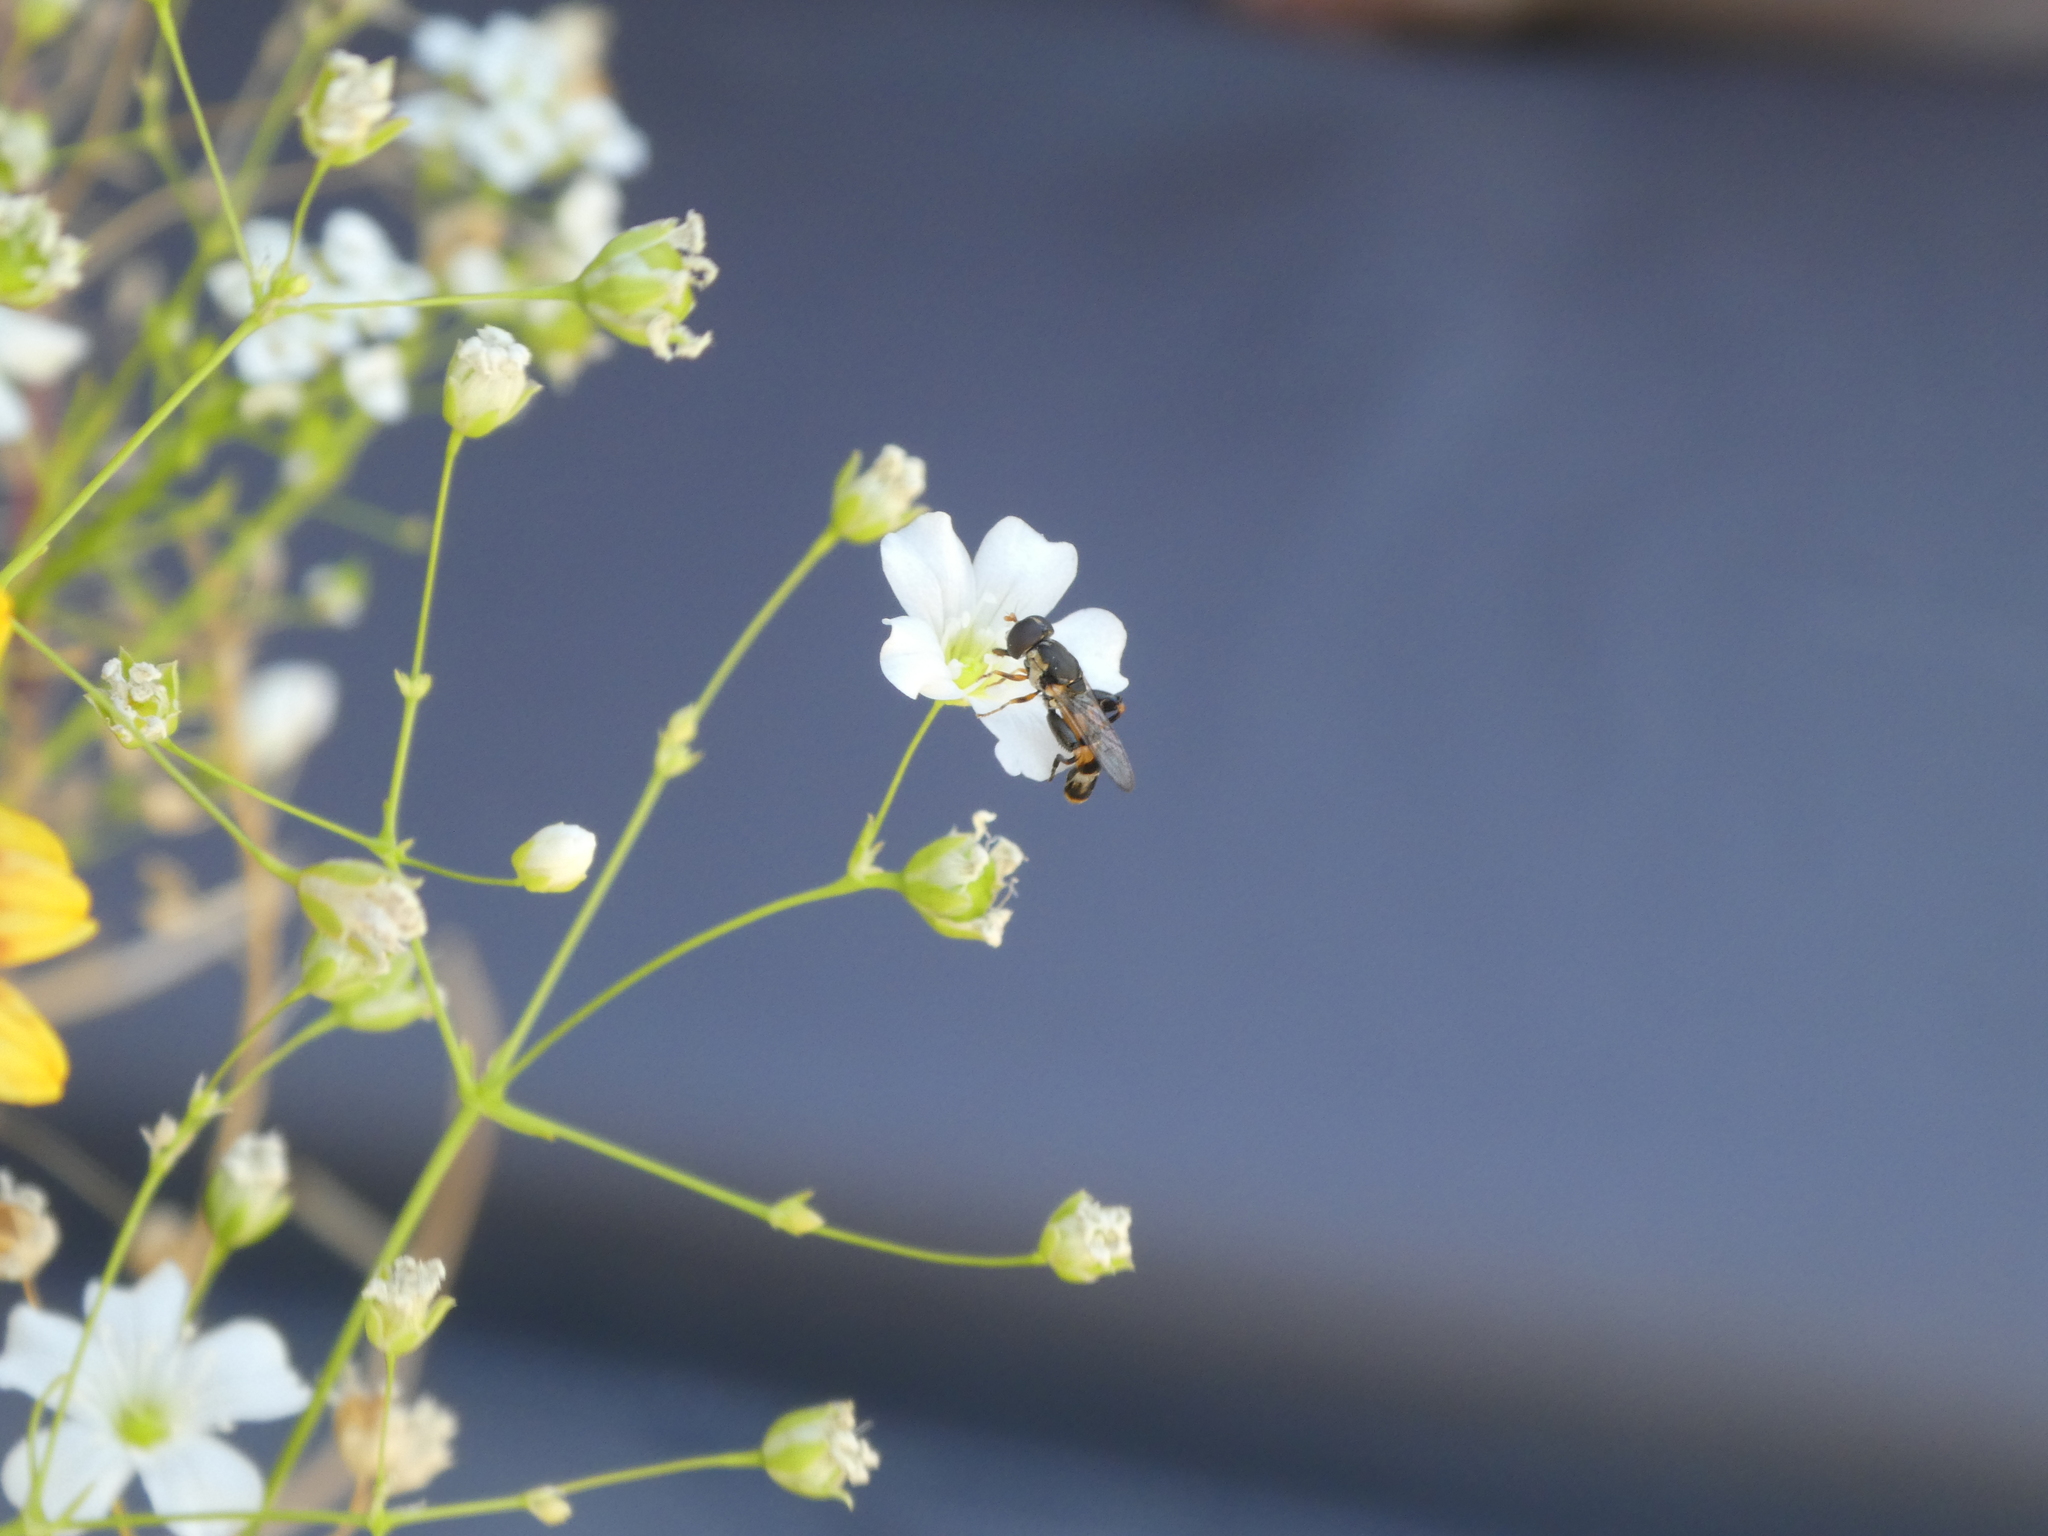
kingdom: Animalia
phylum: Arthropoda
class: Insecta
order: Diptera
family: Syrphidae
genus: Syritta
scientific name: Syritta pipiens
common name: Hover fly
